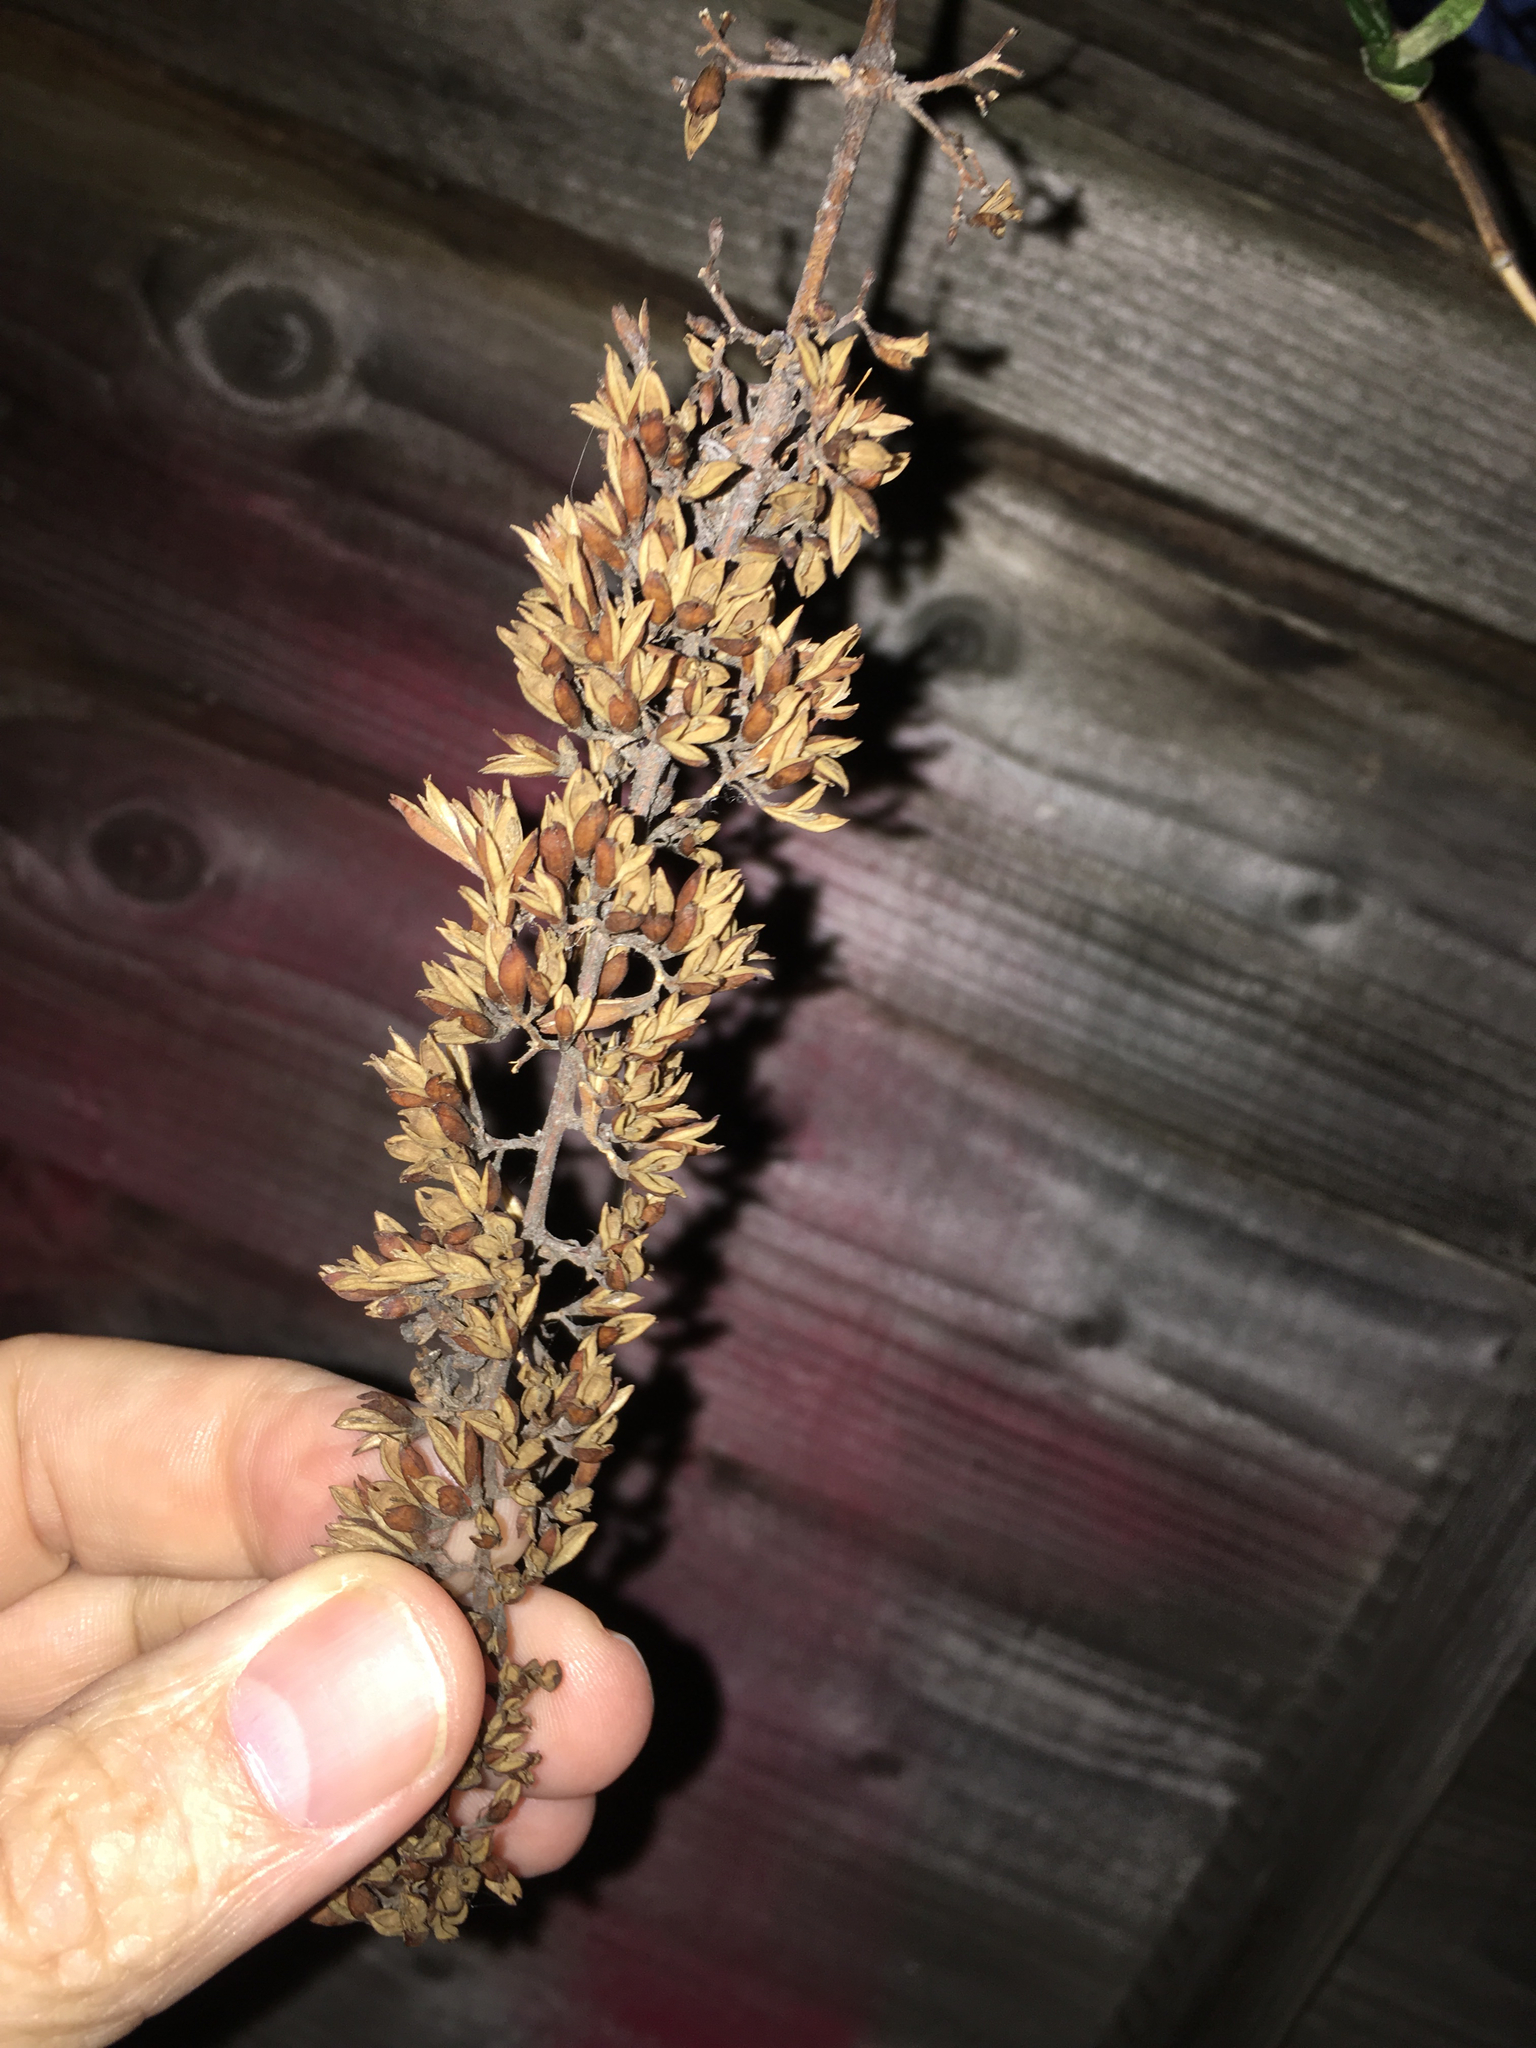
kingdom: Plantae
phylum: Tracheophyta
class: Magnoliopsida
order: Lamiales
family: Scrophulariaceae
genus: Buddleja
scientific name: Buddleja davidii
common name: Butterfly-bush
